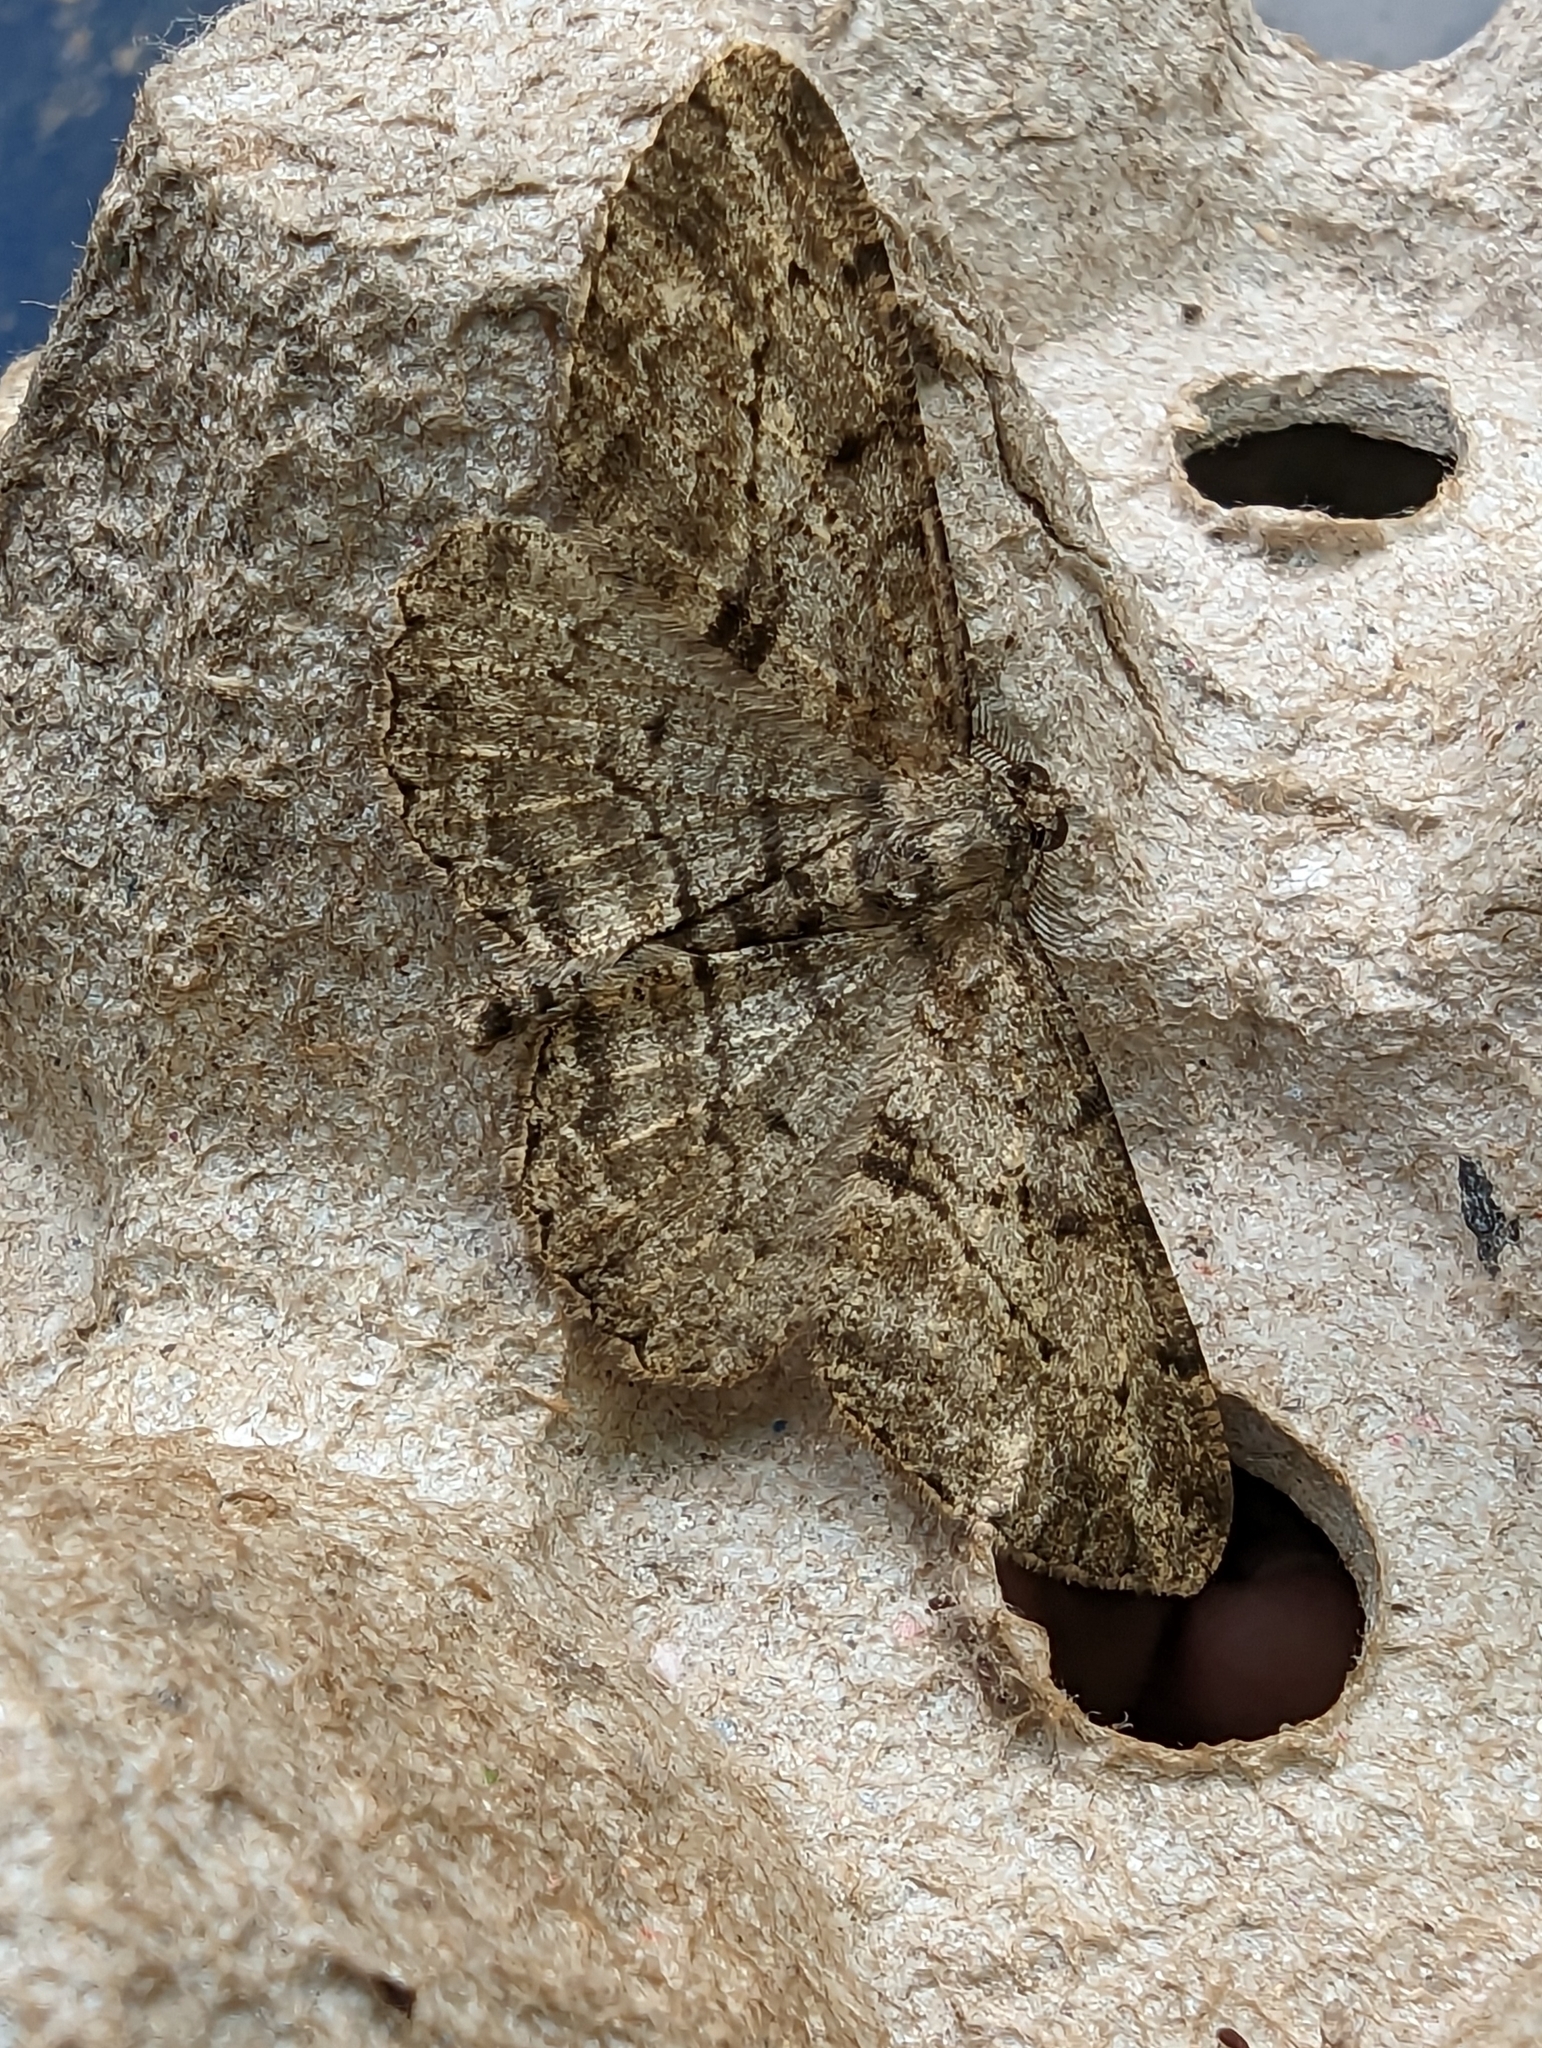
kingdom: Animalia
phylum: Arthropoda
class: Insecta
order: Lepidoptera
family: Geometridae
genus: Peribatodes
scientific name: Peribatodes rhomboidaria
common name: Willow beauty
